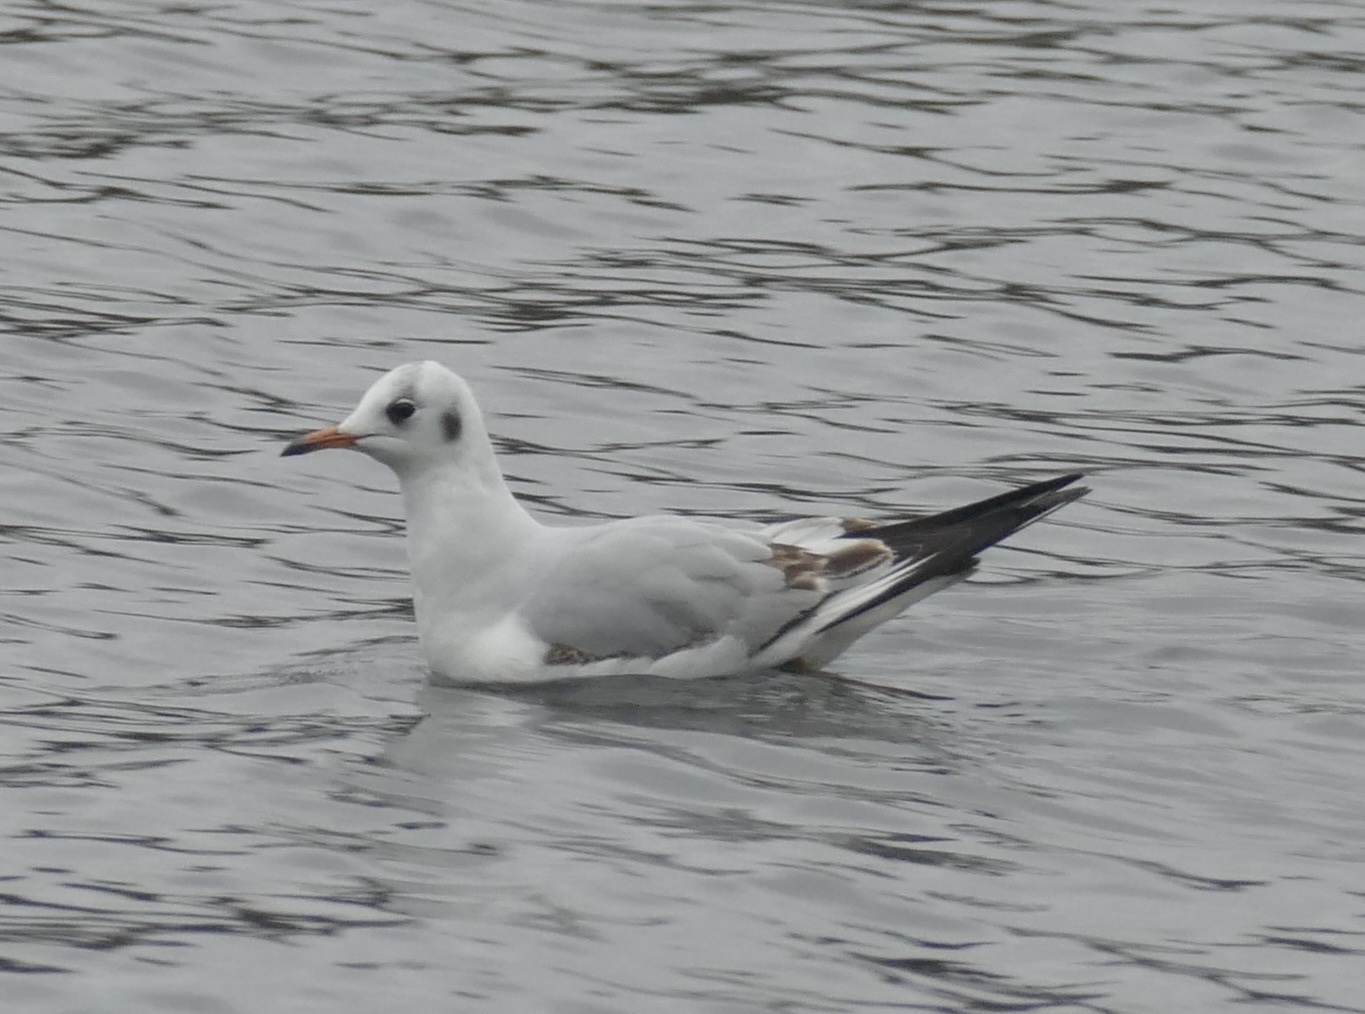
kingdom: Animalia
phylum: Chordata
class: Aves
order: Charadriiformes
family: Laridae
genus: Chroicocephalus
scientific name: Chroicocephalus ridibundus
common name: Black-headed gull
